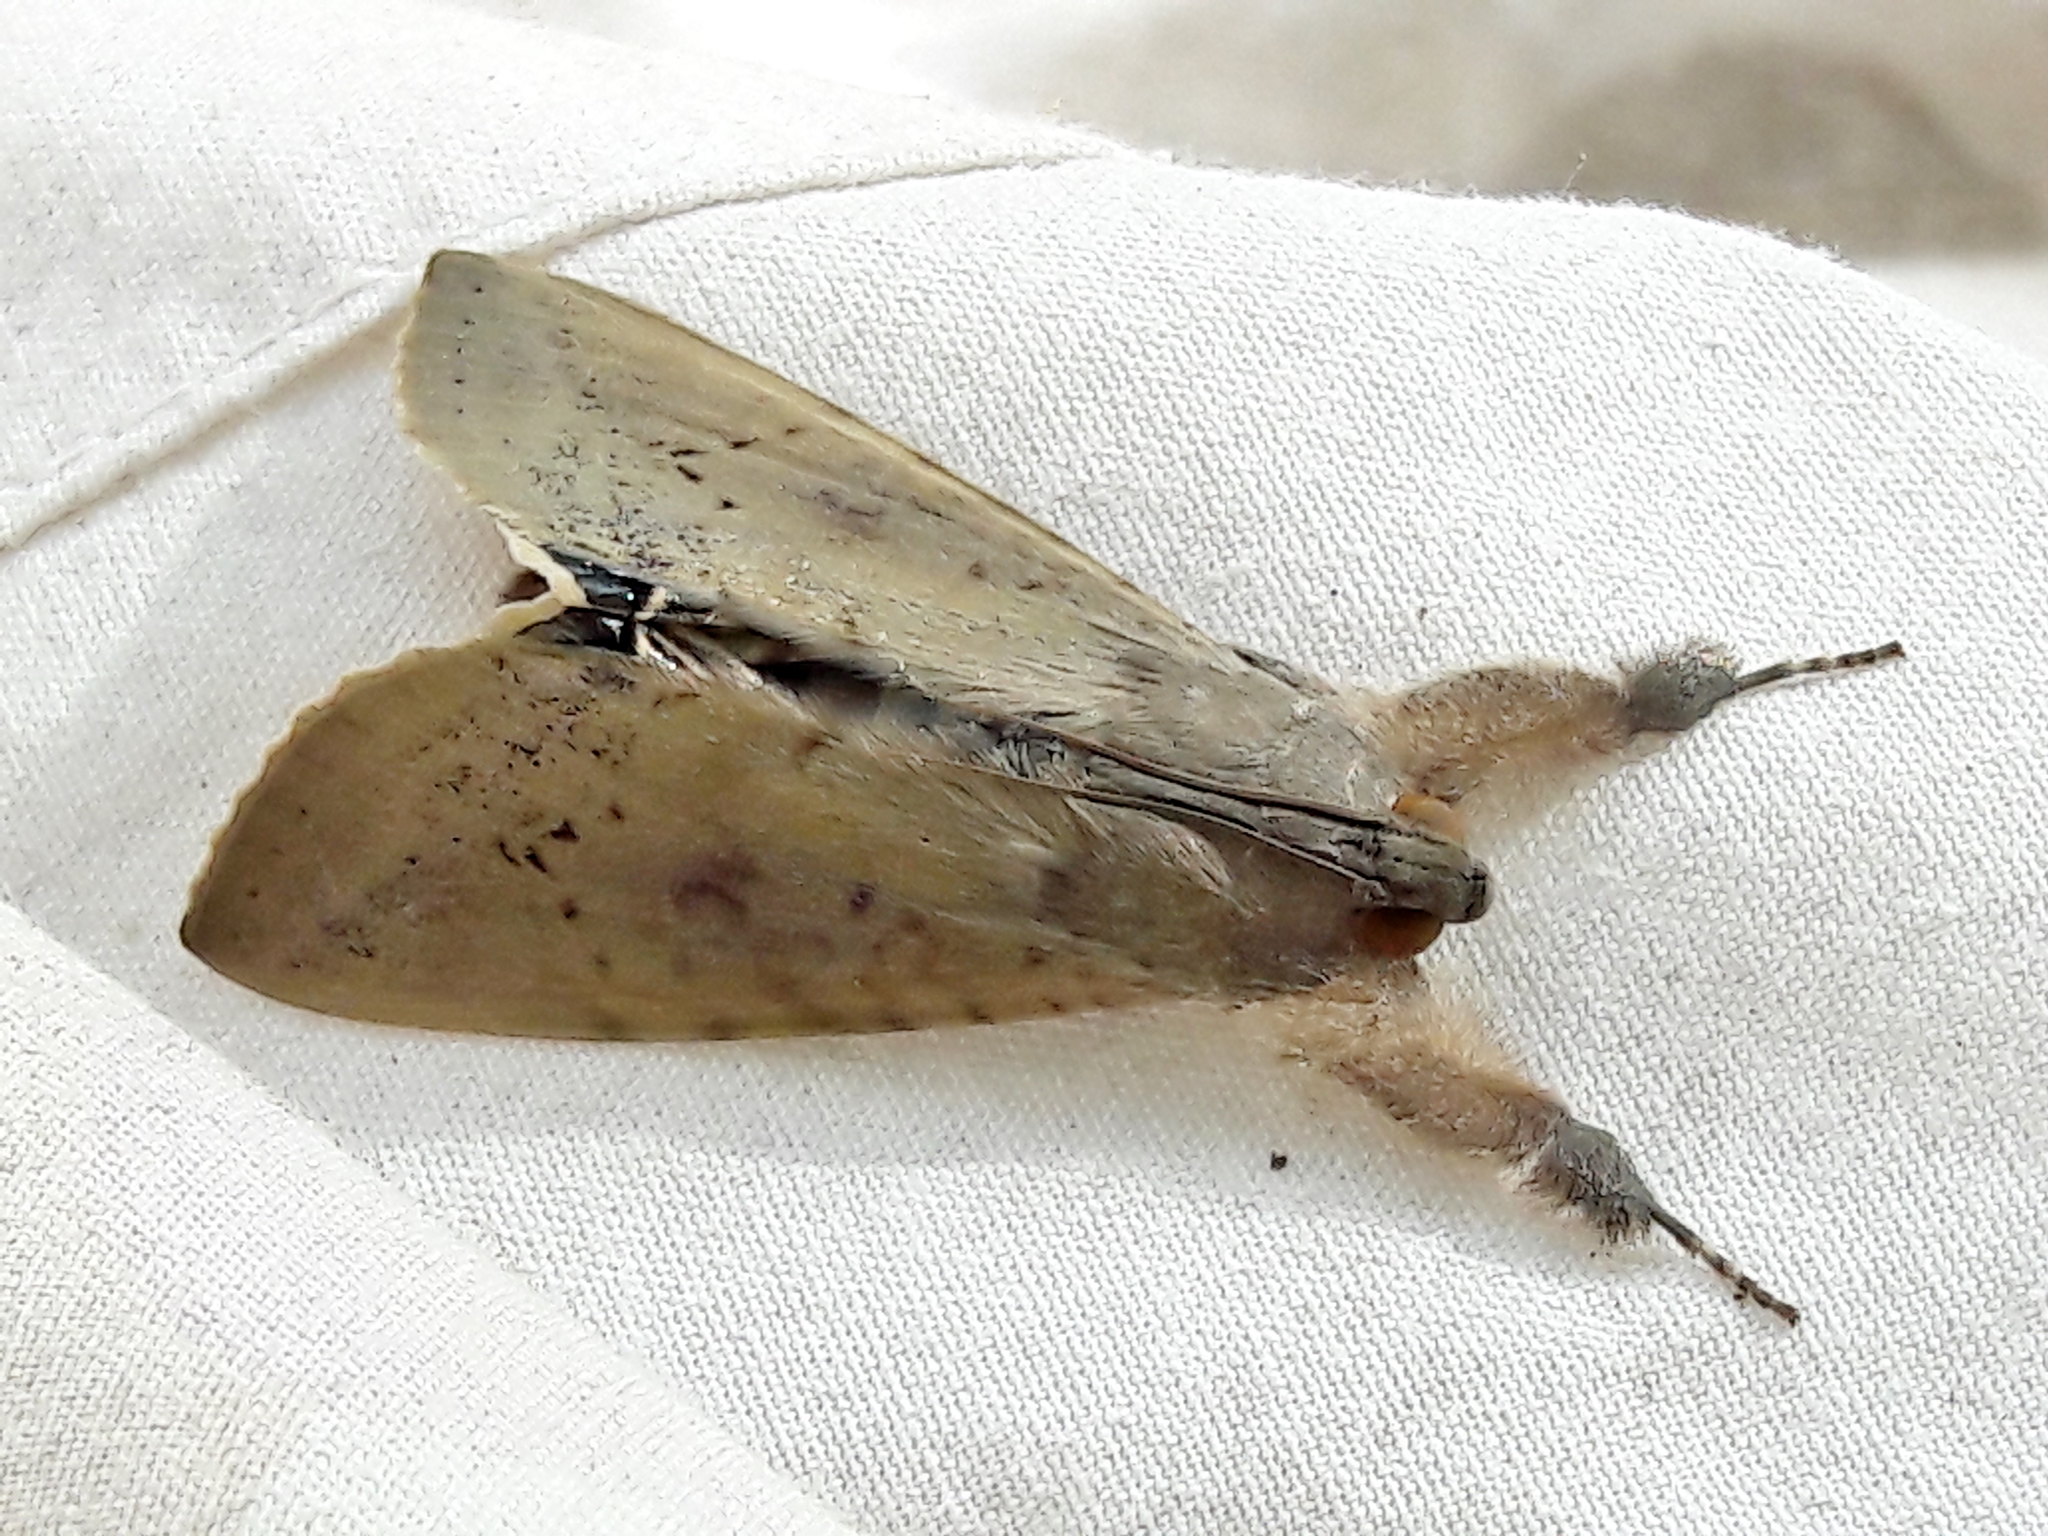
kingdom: Animalia
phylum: Arthropoda
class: Insecta
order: Lepidoptera
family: Erebidae
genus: Litoprosopus
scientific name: Litoprosopus confligens
